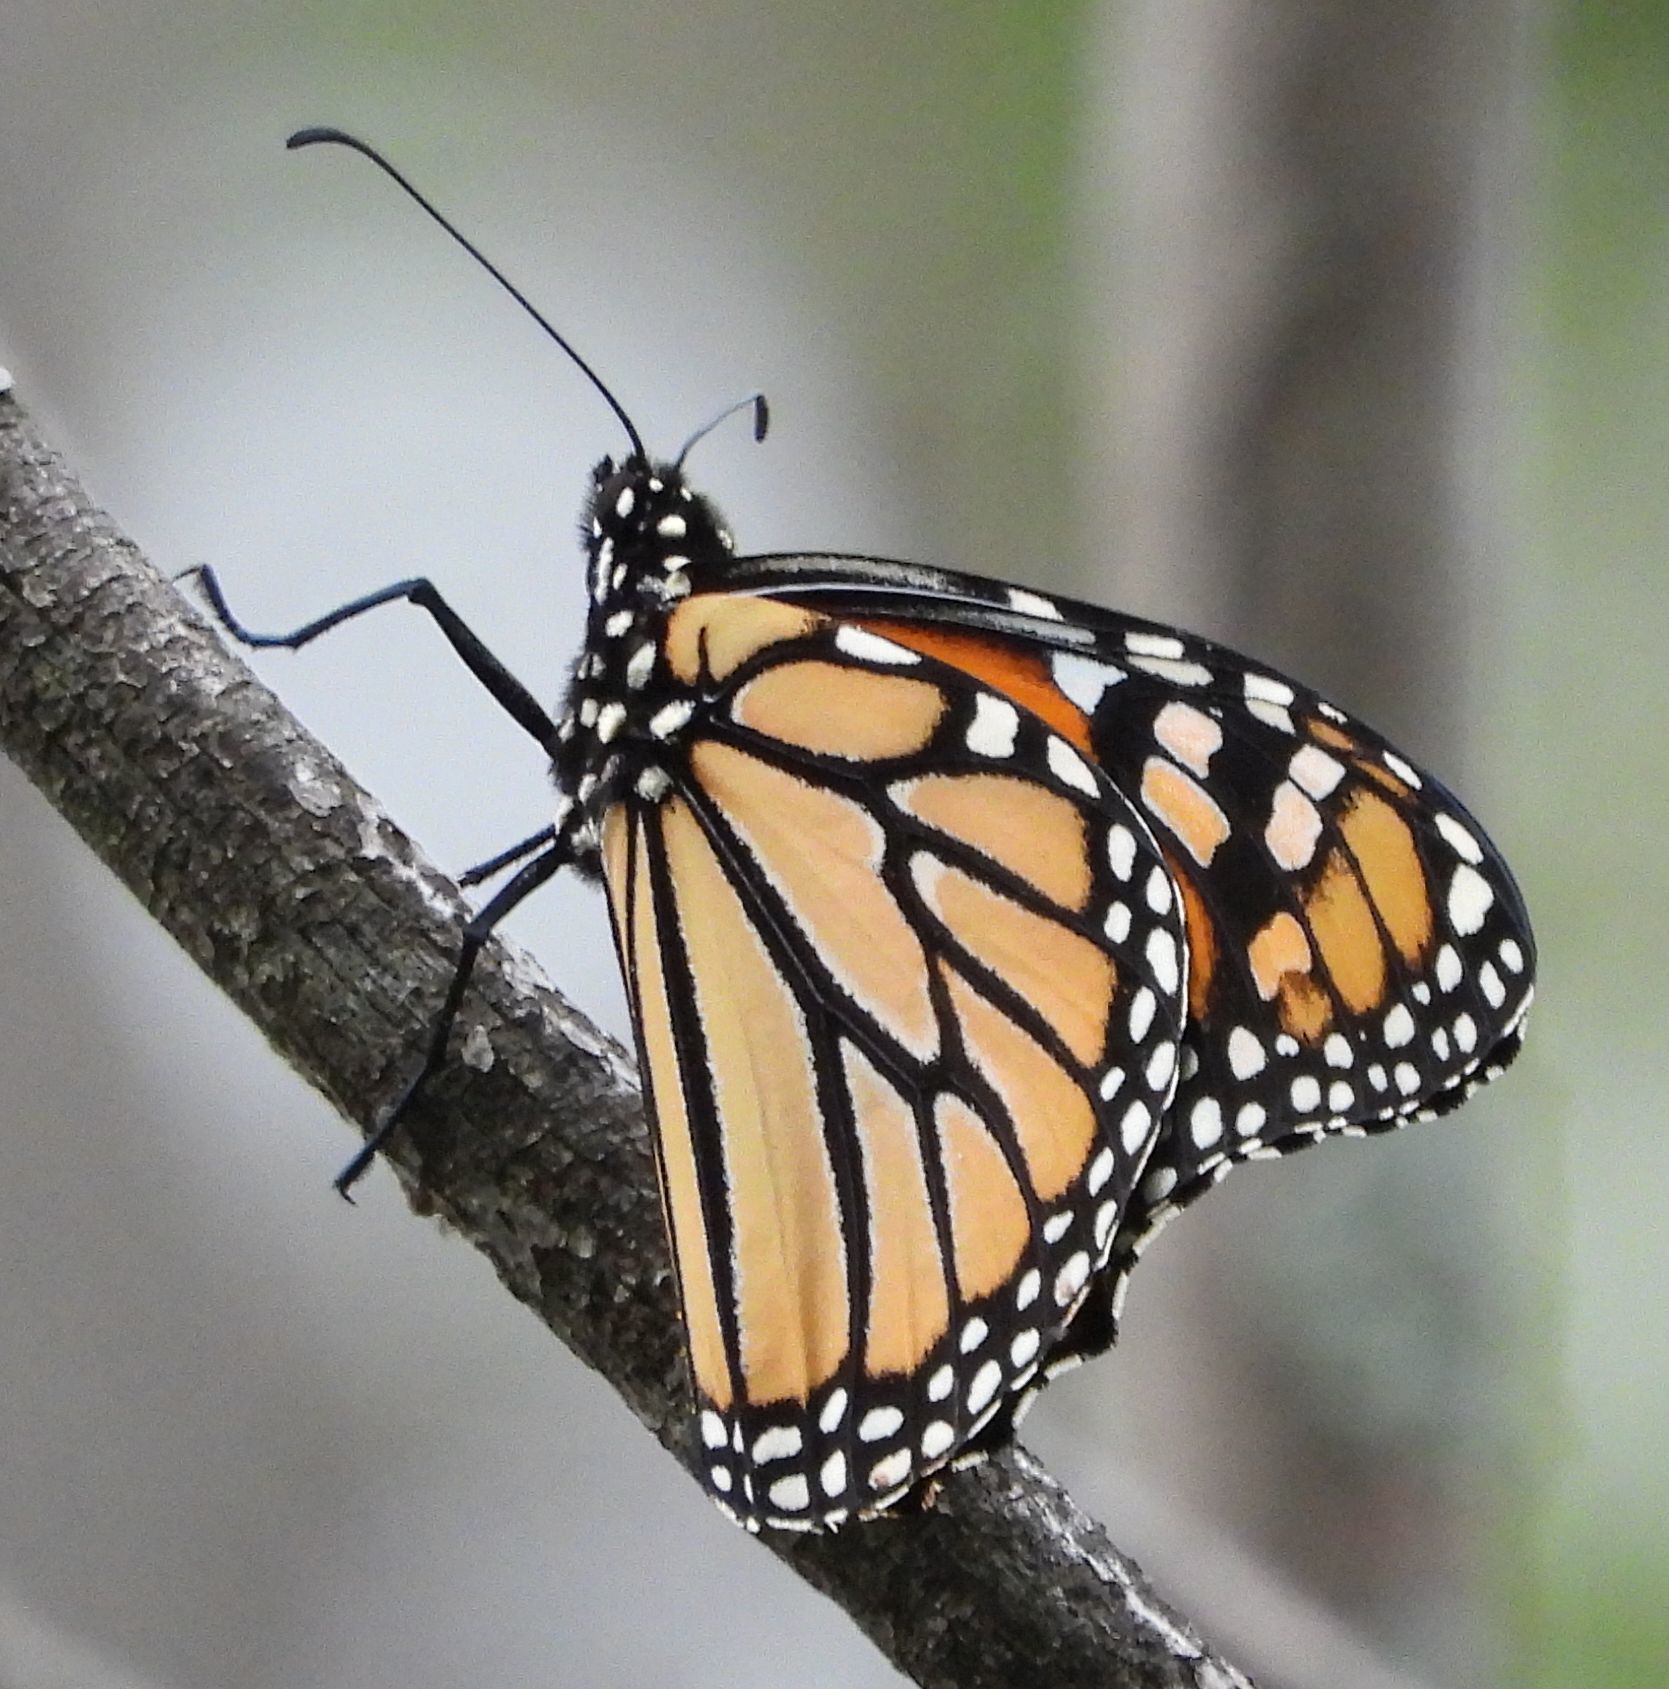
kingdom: Animalia
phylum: Arthropoda
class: Insecta
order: Lepidoptera
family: Nymphalidae
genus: Danaus
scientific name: Danaus plexippus
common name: Monarch
